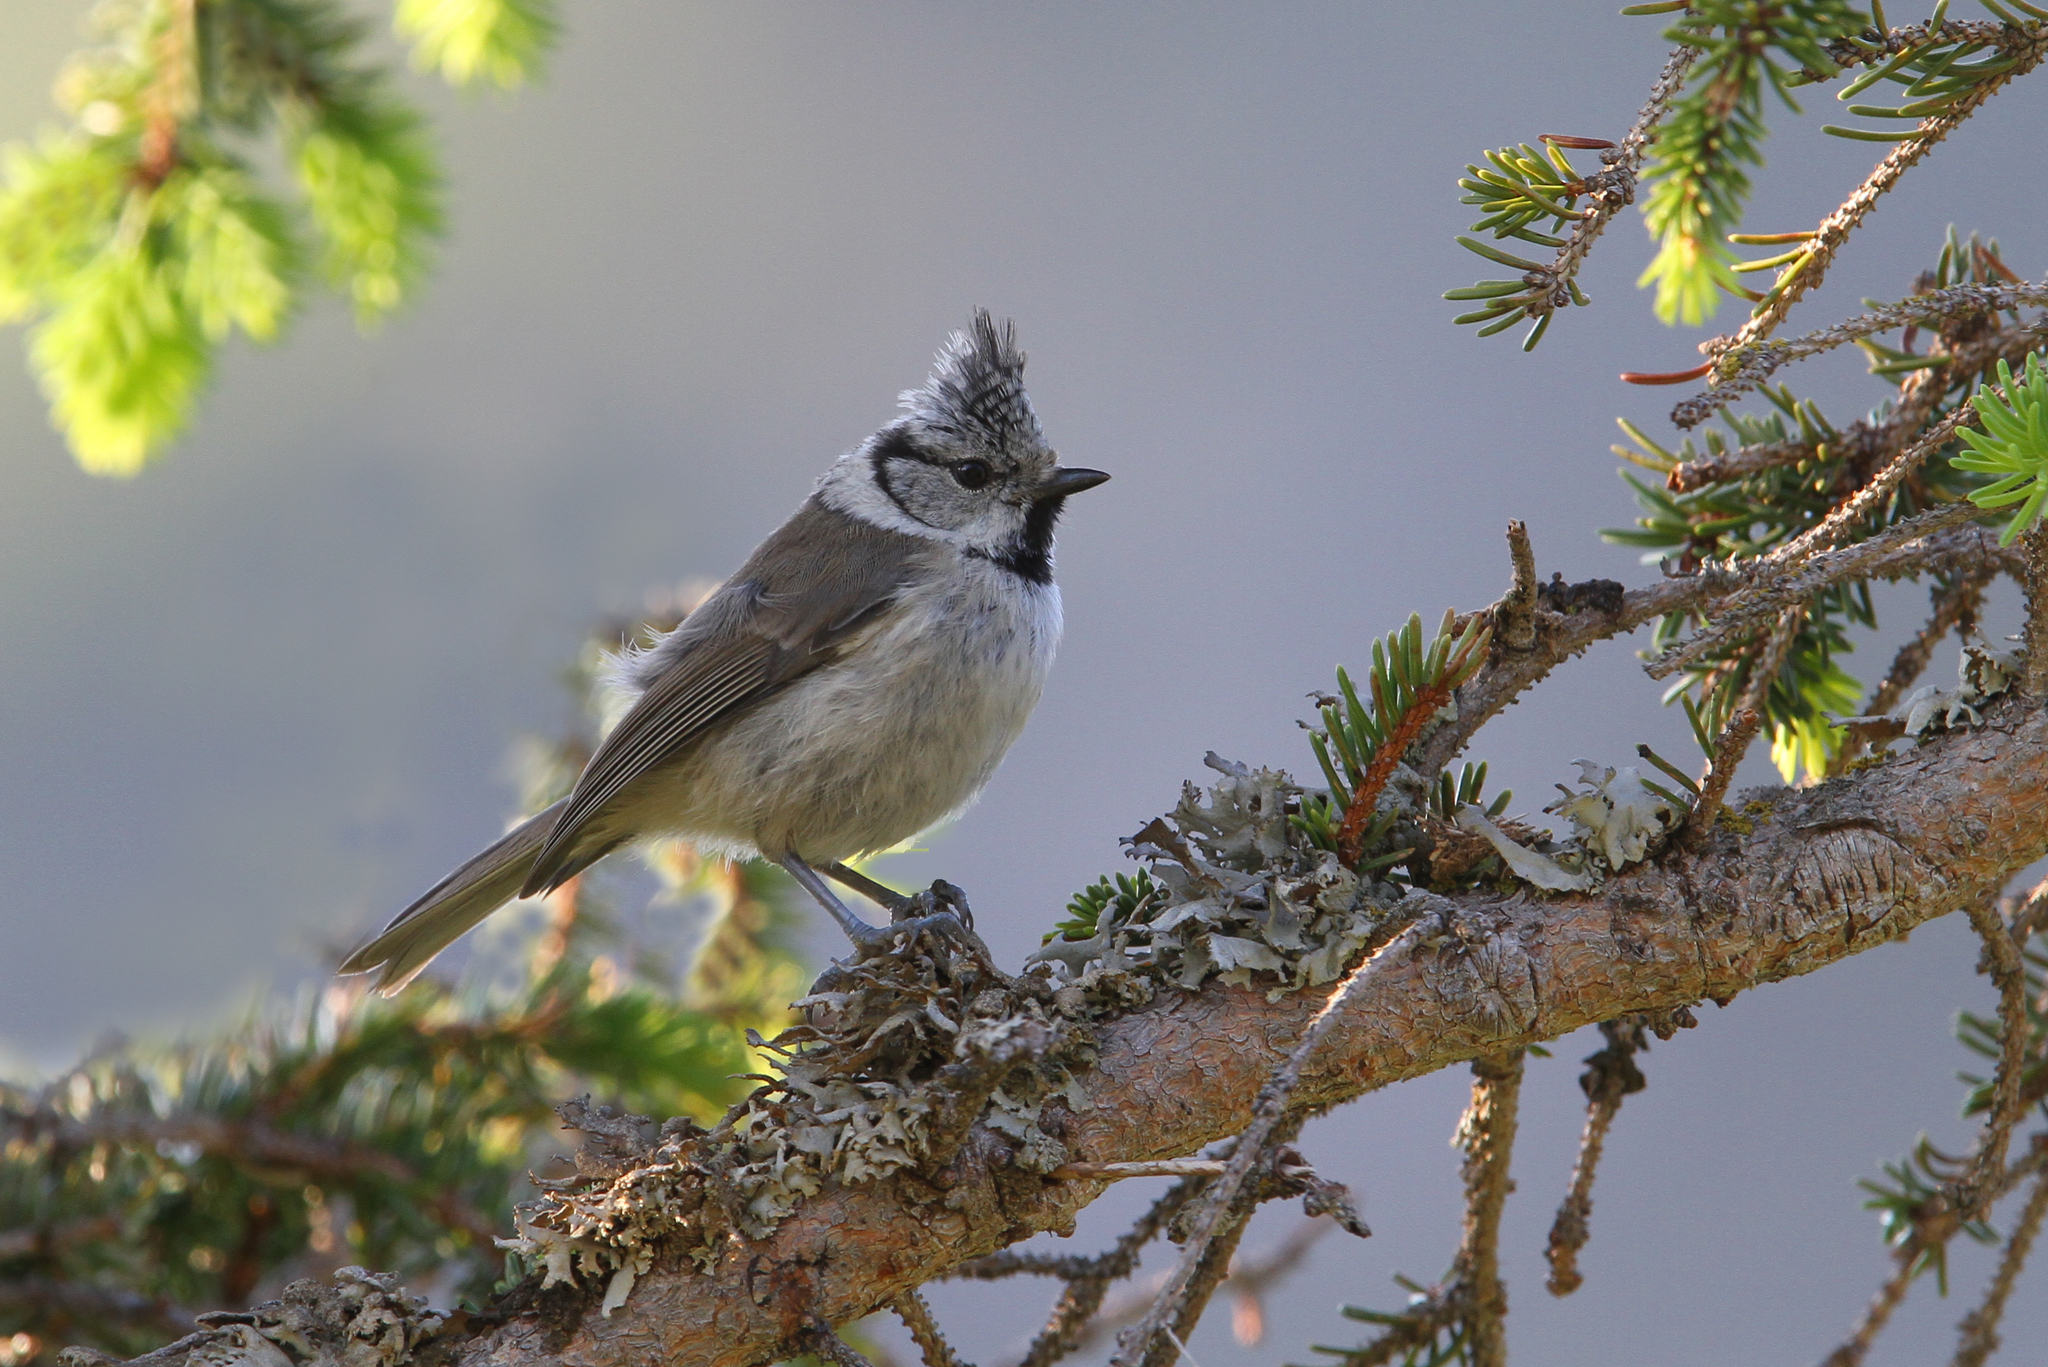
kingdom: Animalia
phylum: Chordata
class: Aves
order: Passeriformes
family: Paridae
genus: Lophophanes
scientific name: Lophophanes cristatus
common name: European crested tit
